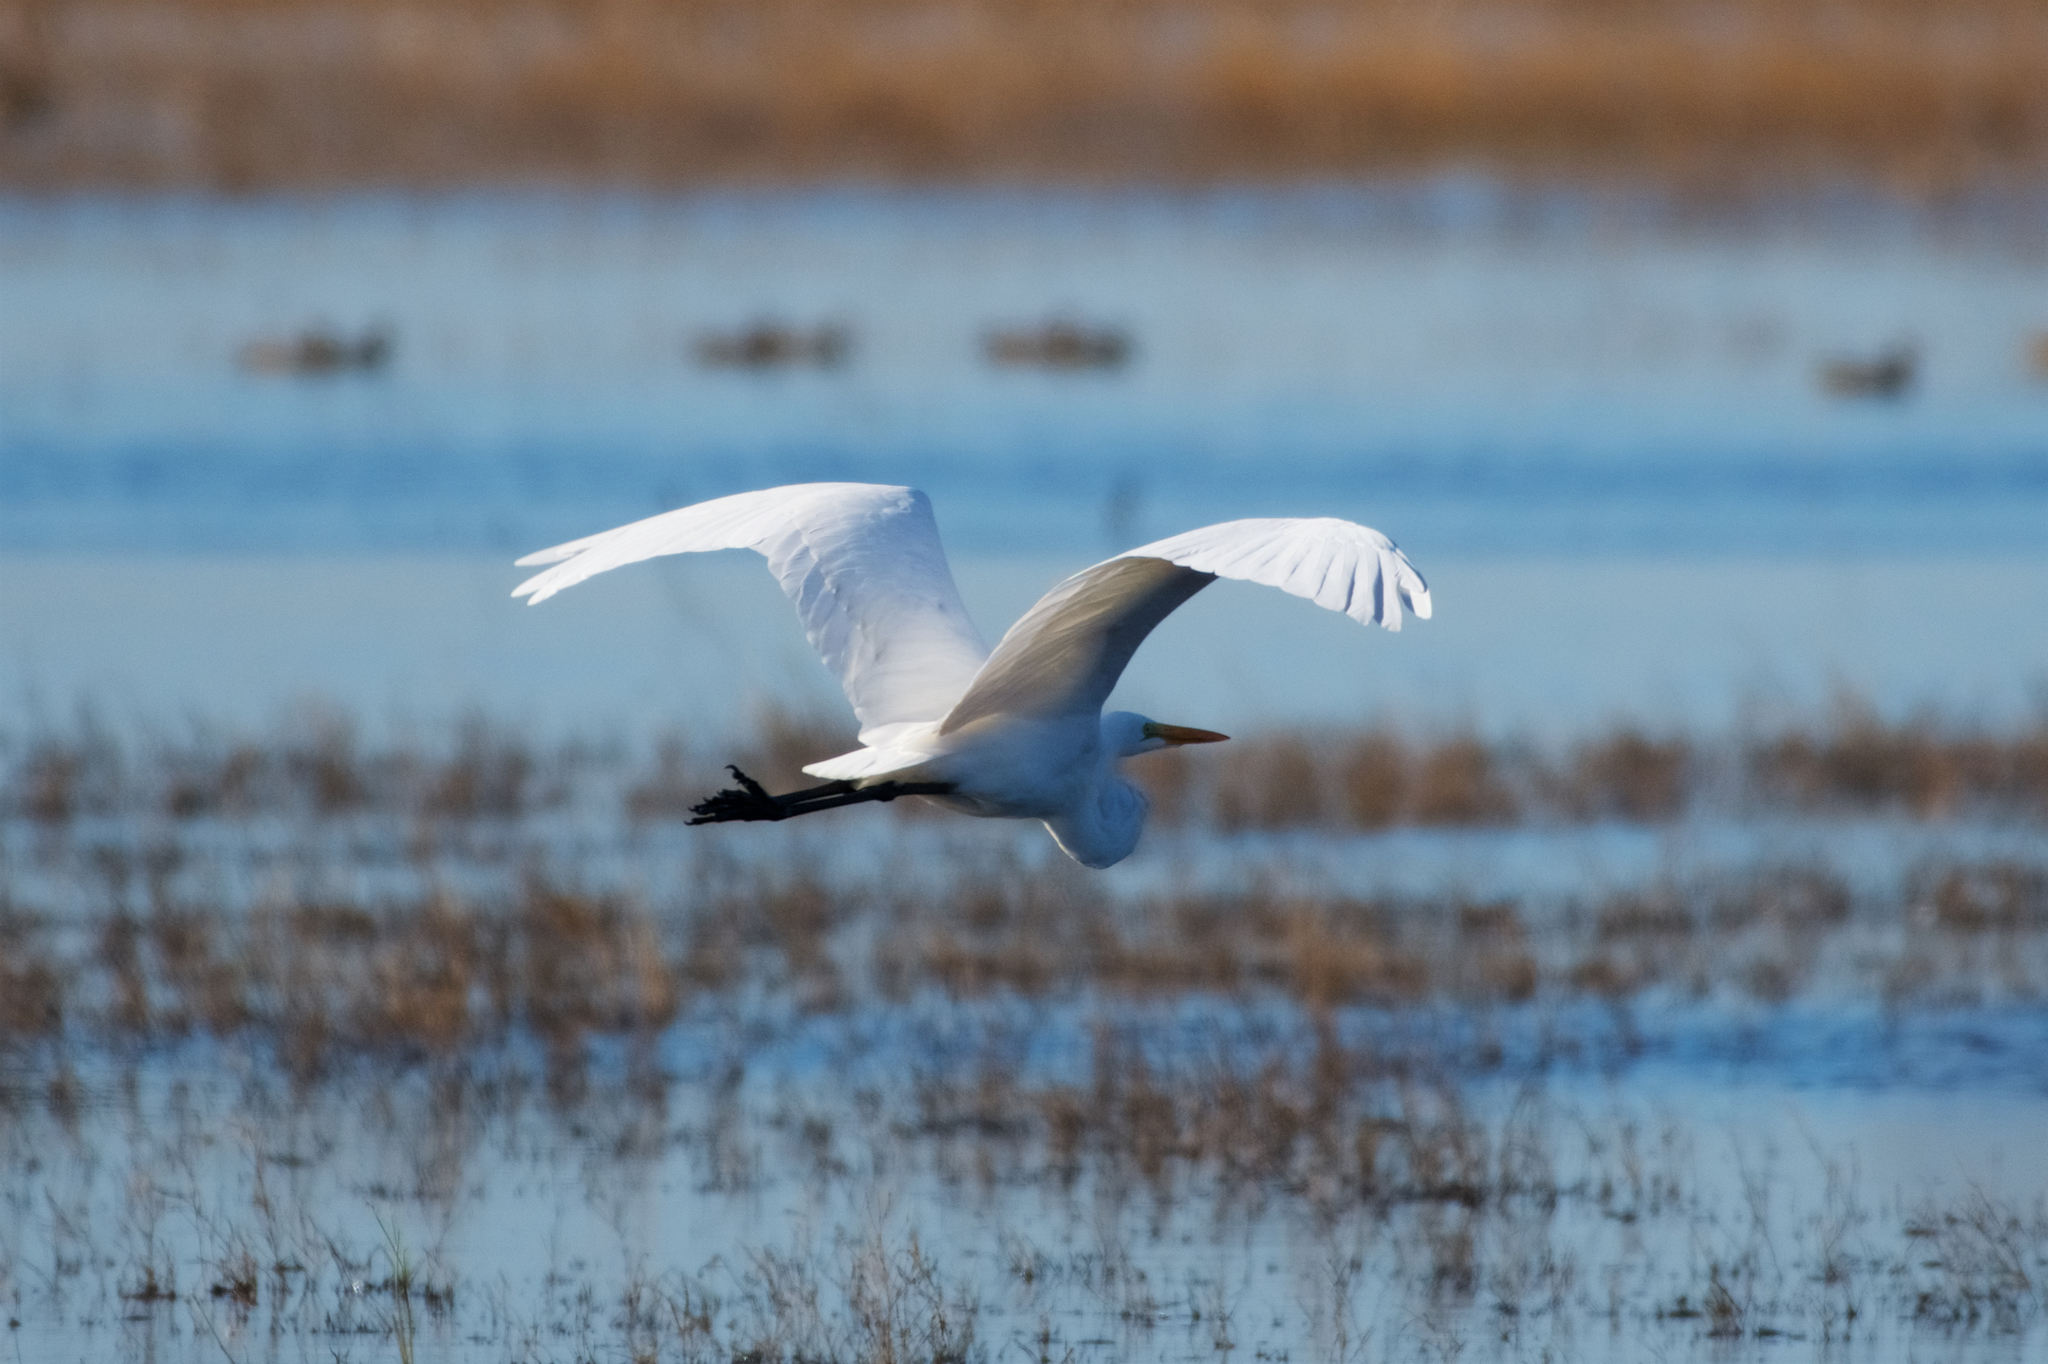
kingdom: Animalia
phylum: Chordata
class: Aves
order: Pelecaniformes
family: Ardeidae
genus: Ardea
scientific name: Ardea alba
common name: Great egret
